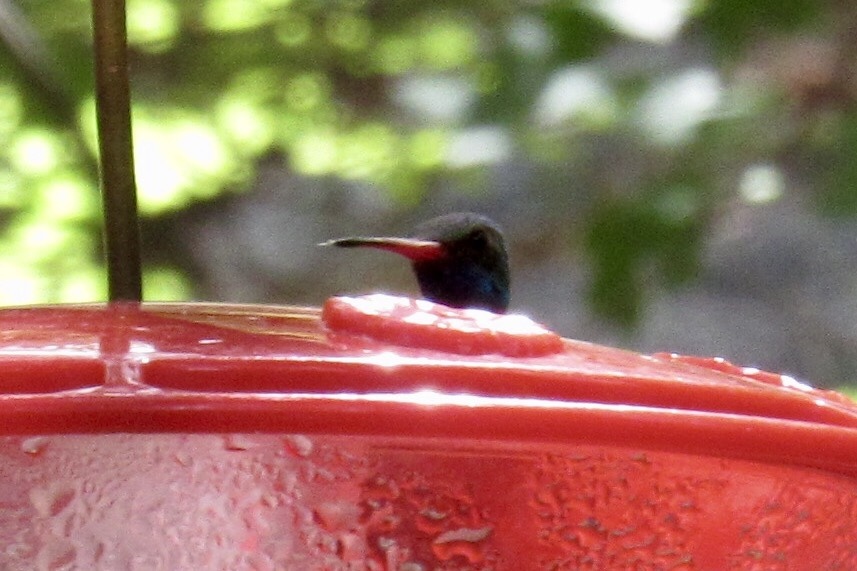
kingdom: Animalia
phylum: Chordata
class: Aves
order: Apodiformes
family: Trochilidae
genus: Cynanthus
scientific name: Cynanthus latirostris
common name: Broad-billed hummingbird
